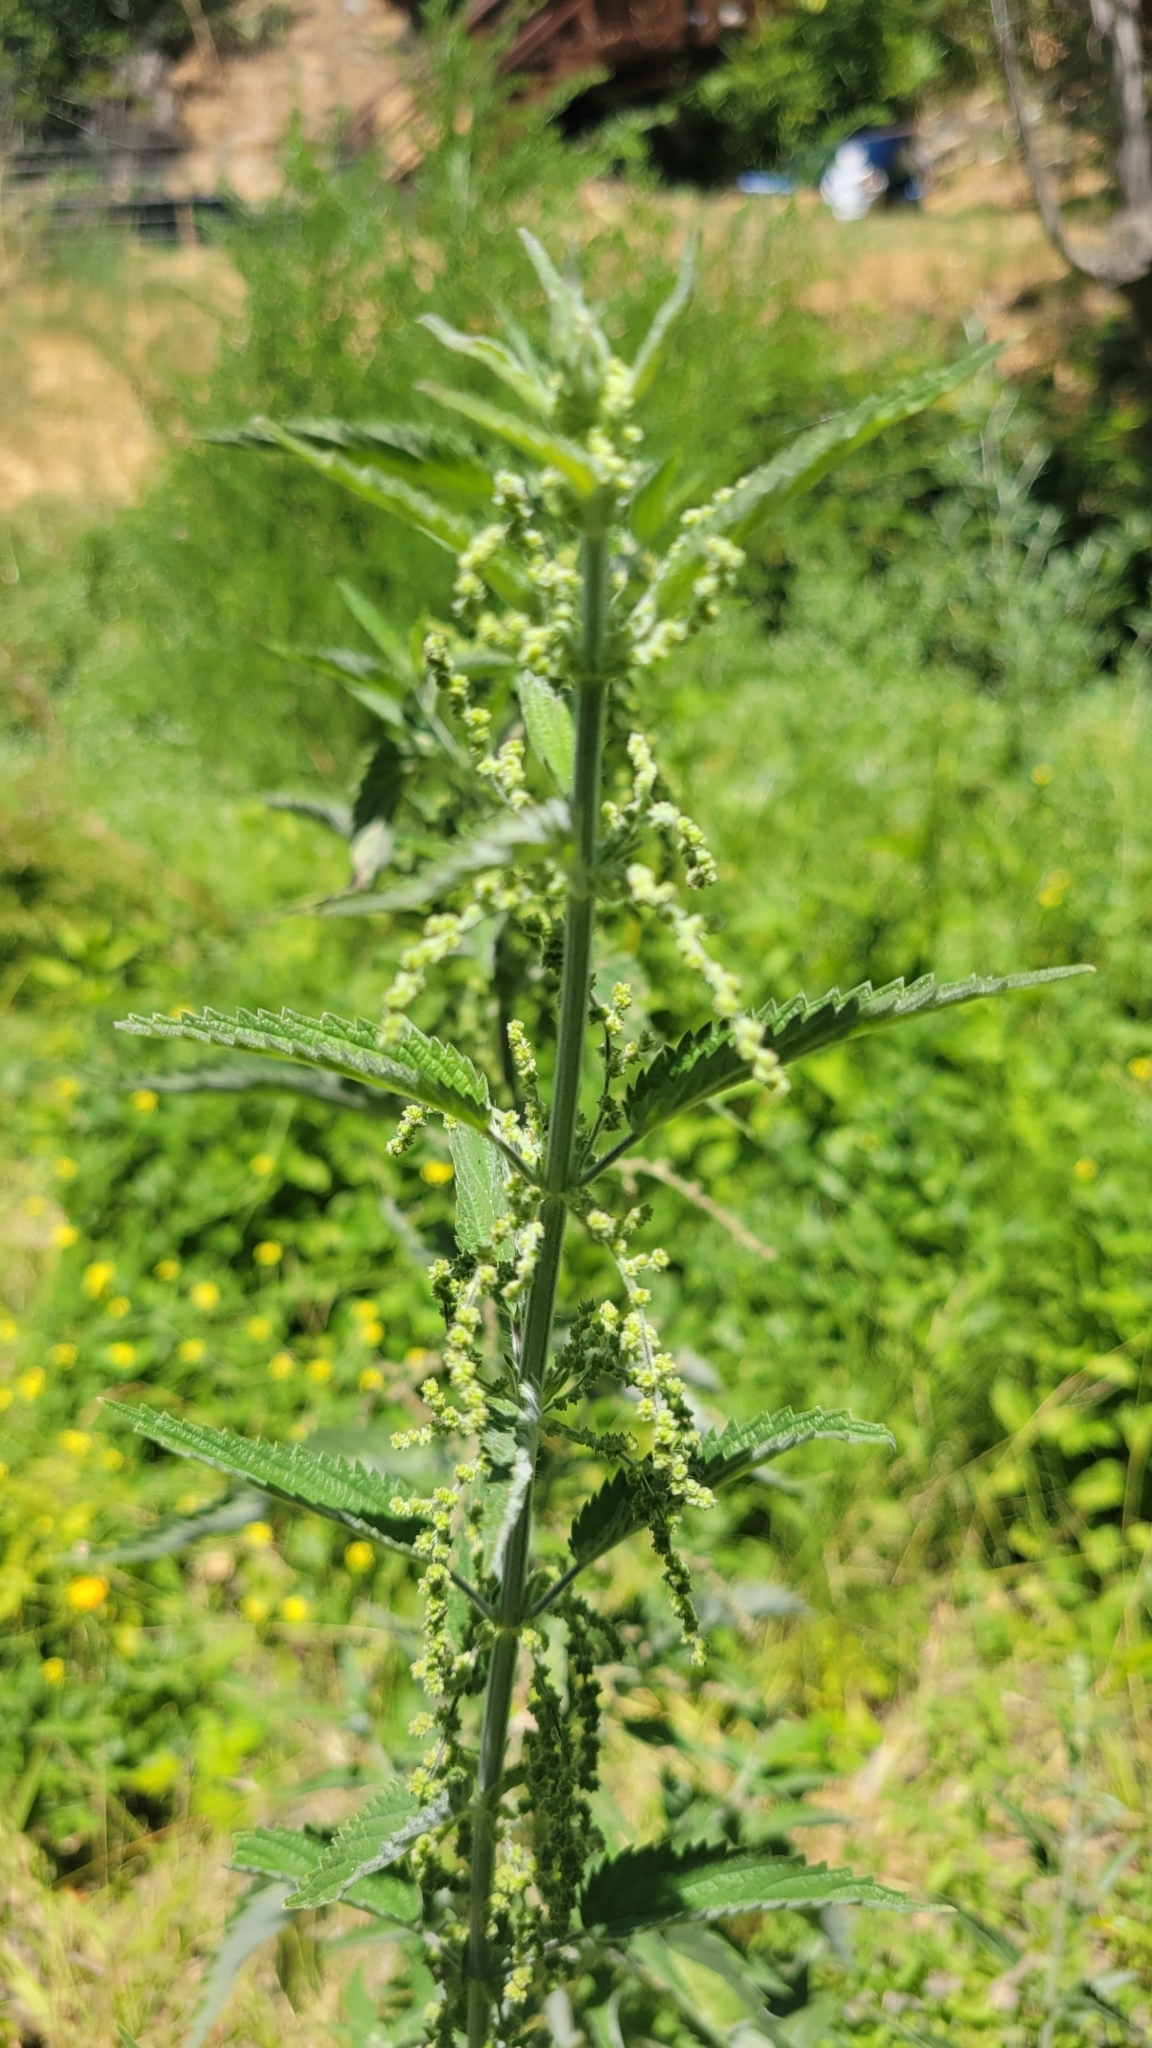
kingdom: Plantae
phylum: Tracheophyta
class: Magnoliopsida
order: Rosales
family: Urticaceae
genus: Urtica
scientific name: Urtica dioica
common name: Common nettle
